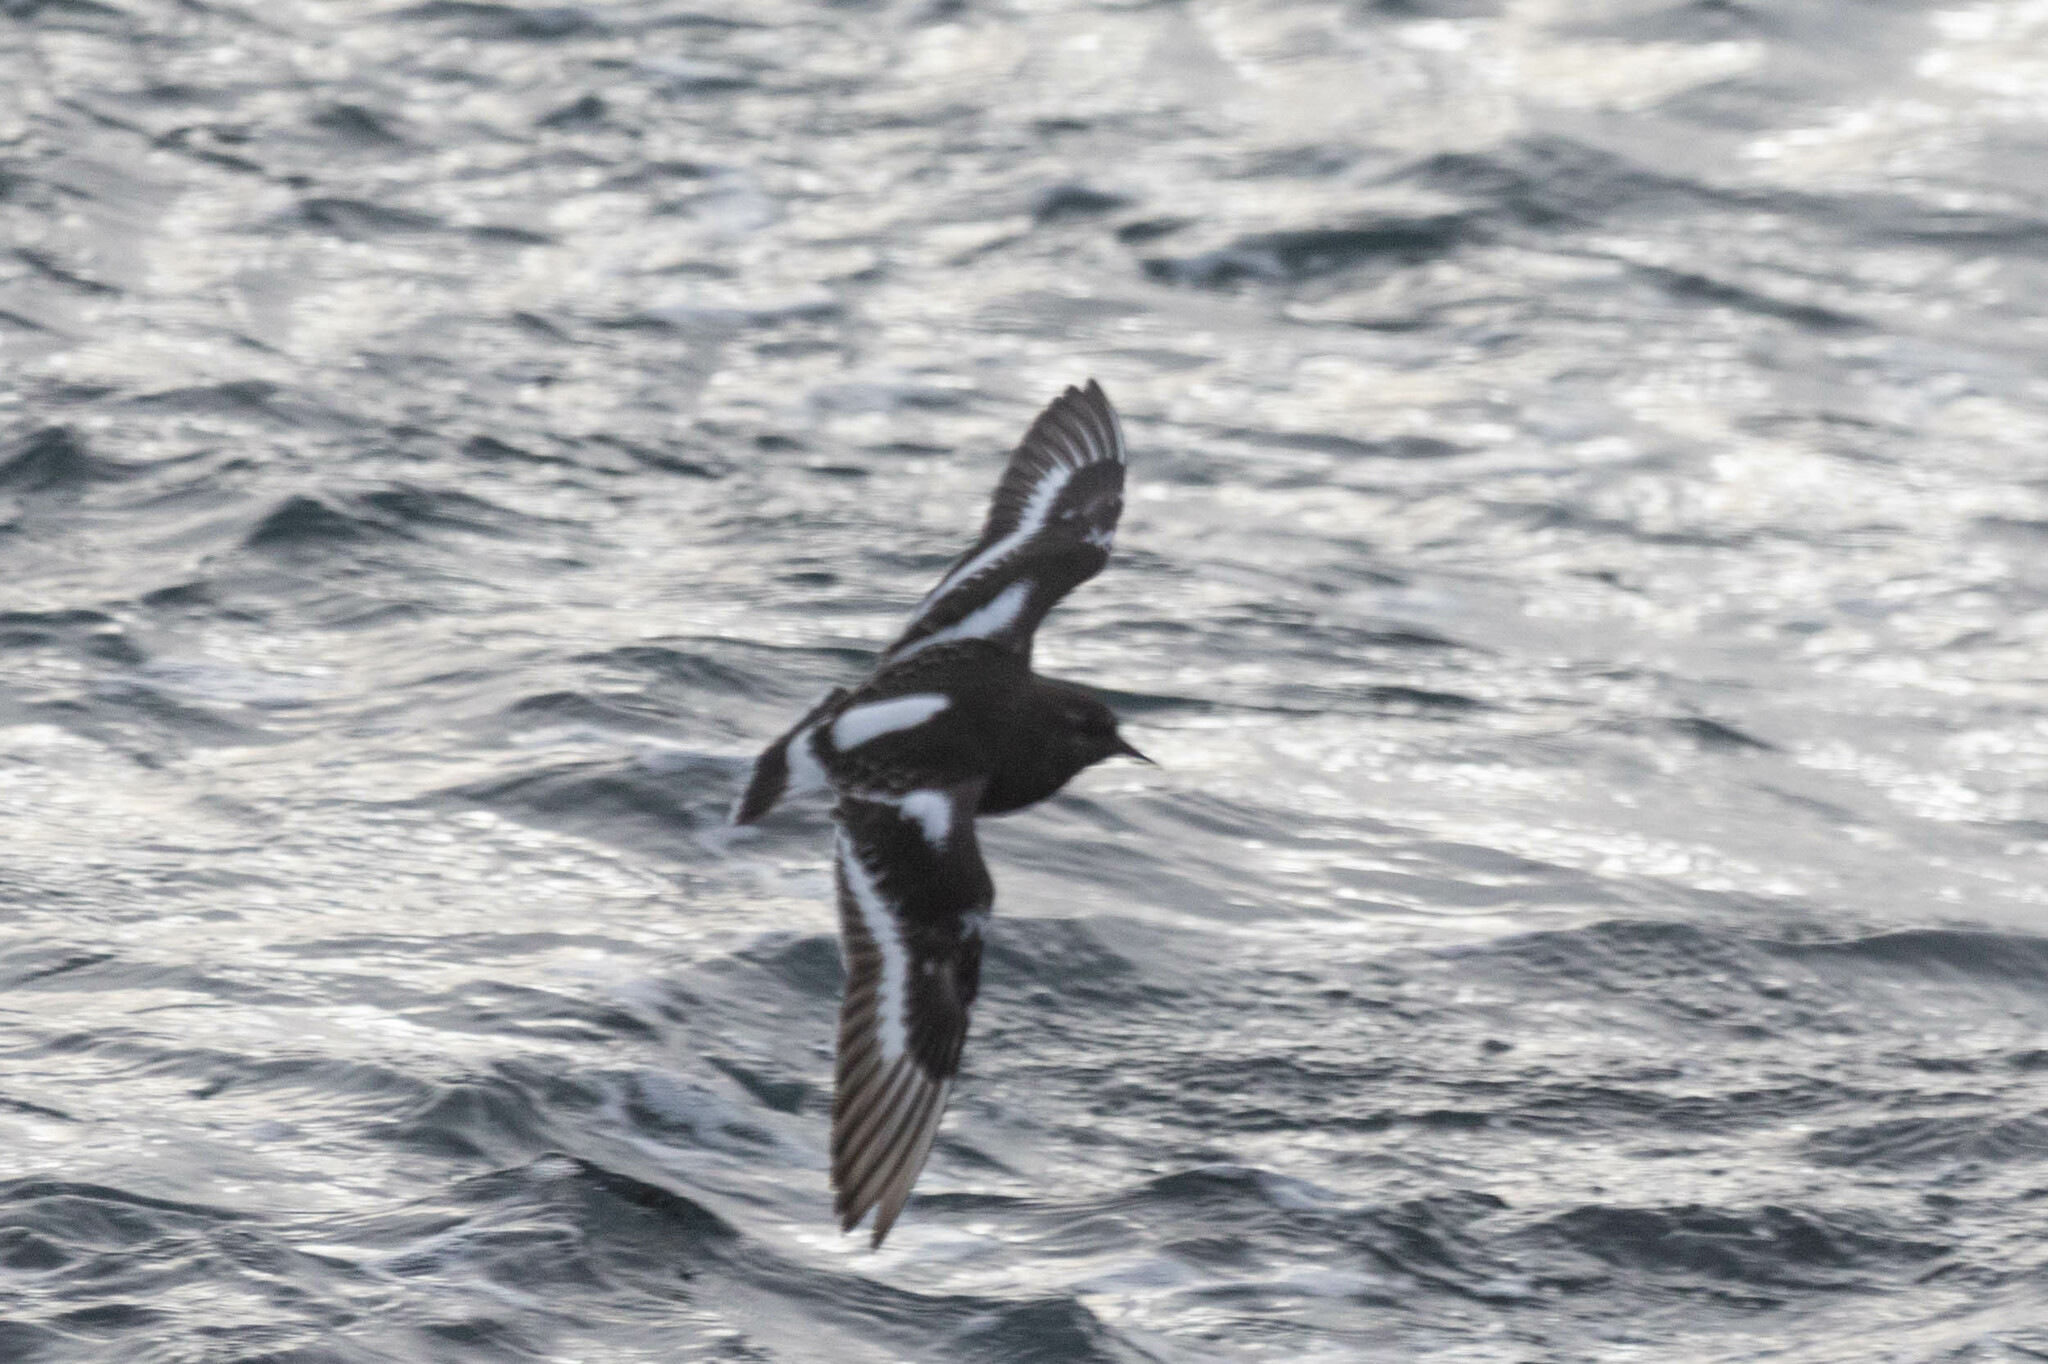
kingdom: Animalia
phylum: Chordata
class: Aves
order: Charadriiformes
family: Scolopacidae
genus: Arenaria
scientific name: Arenaria melanocephala
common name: Black turnstone
